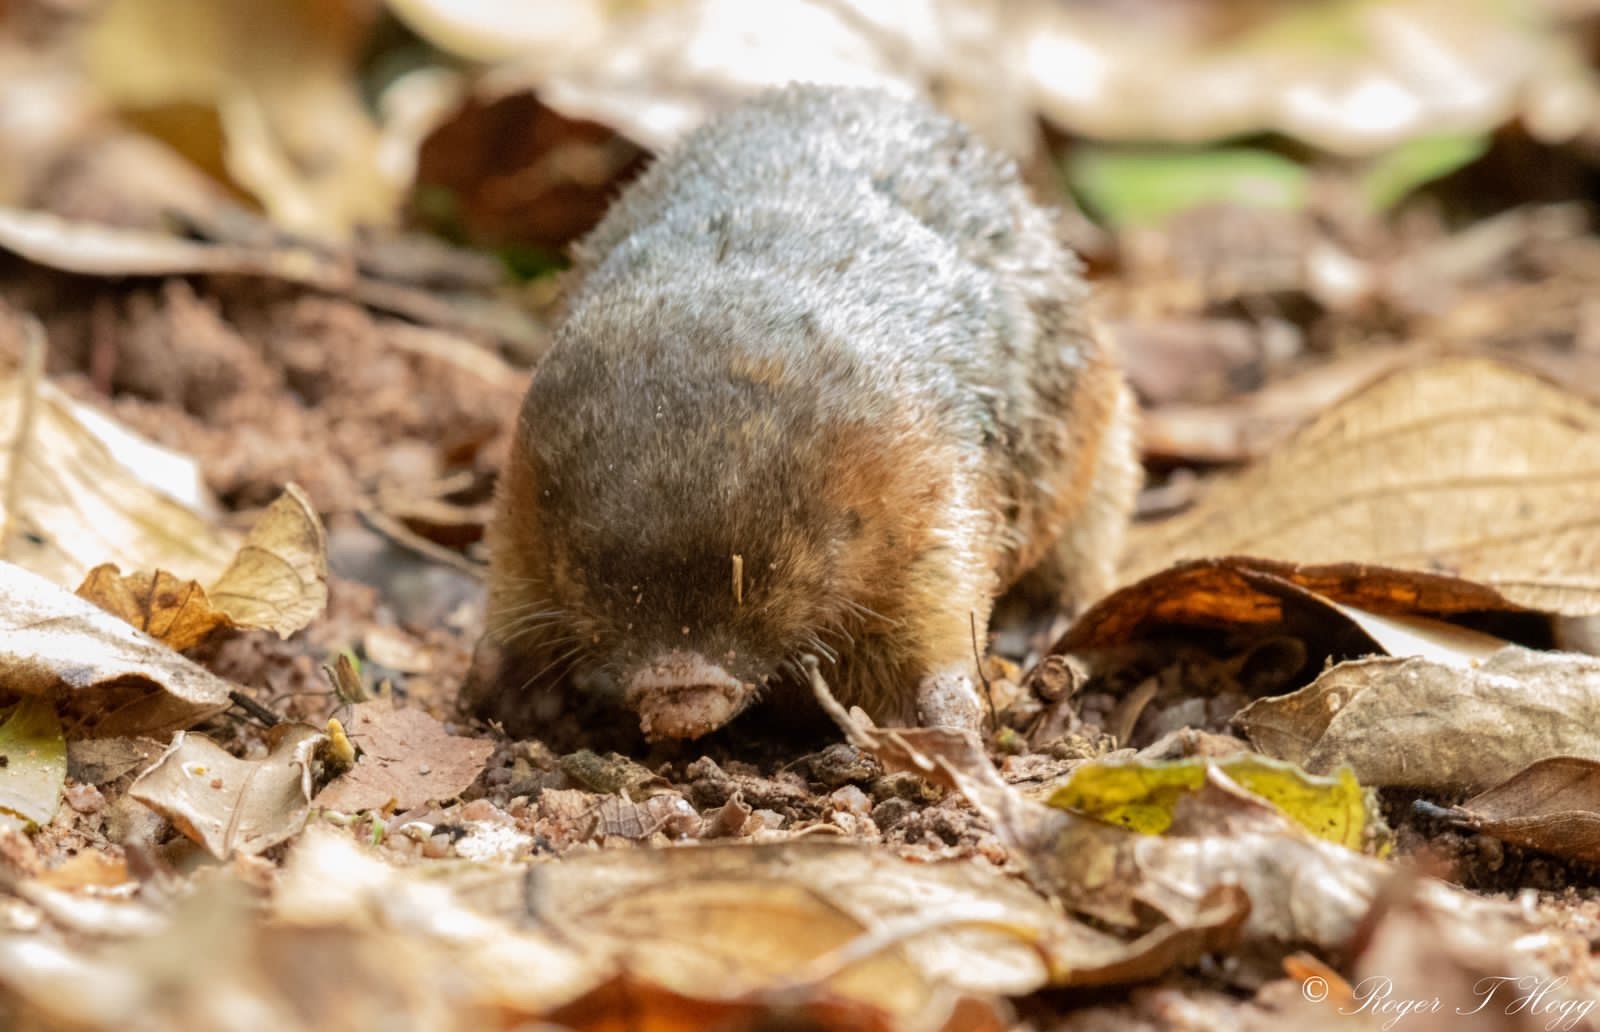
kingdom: Animalia
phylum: Chordata
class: Mammalia
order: Afrosoricida
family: Chrysochloridae
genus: Amblysomus
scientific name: Amblysomus hottentotus
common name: Hottentot golden mole
